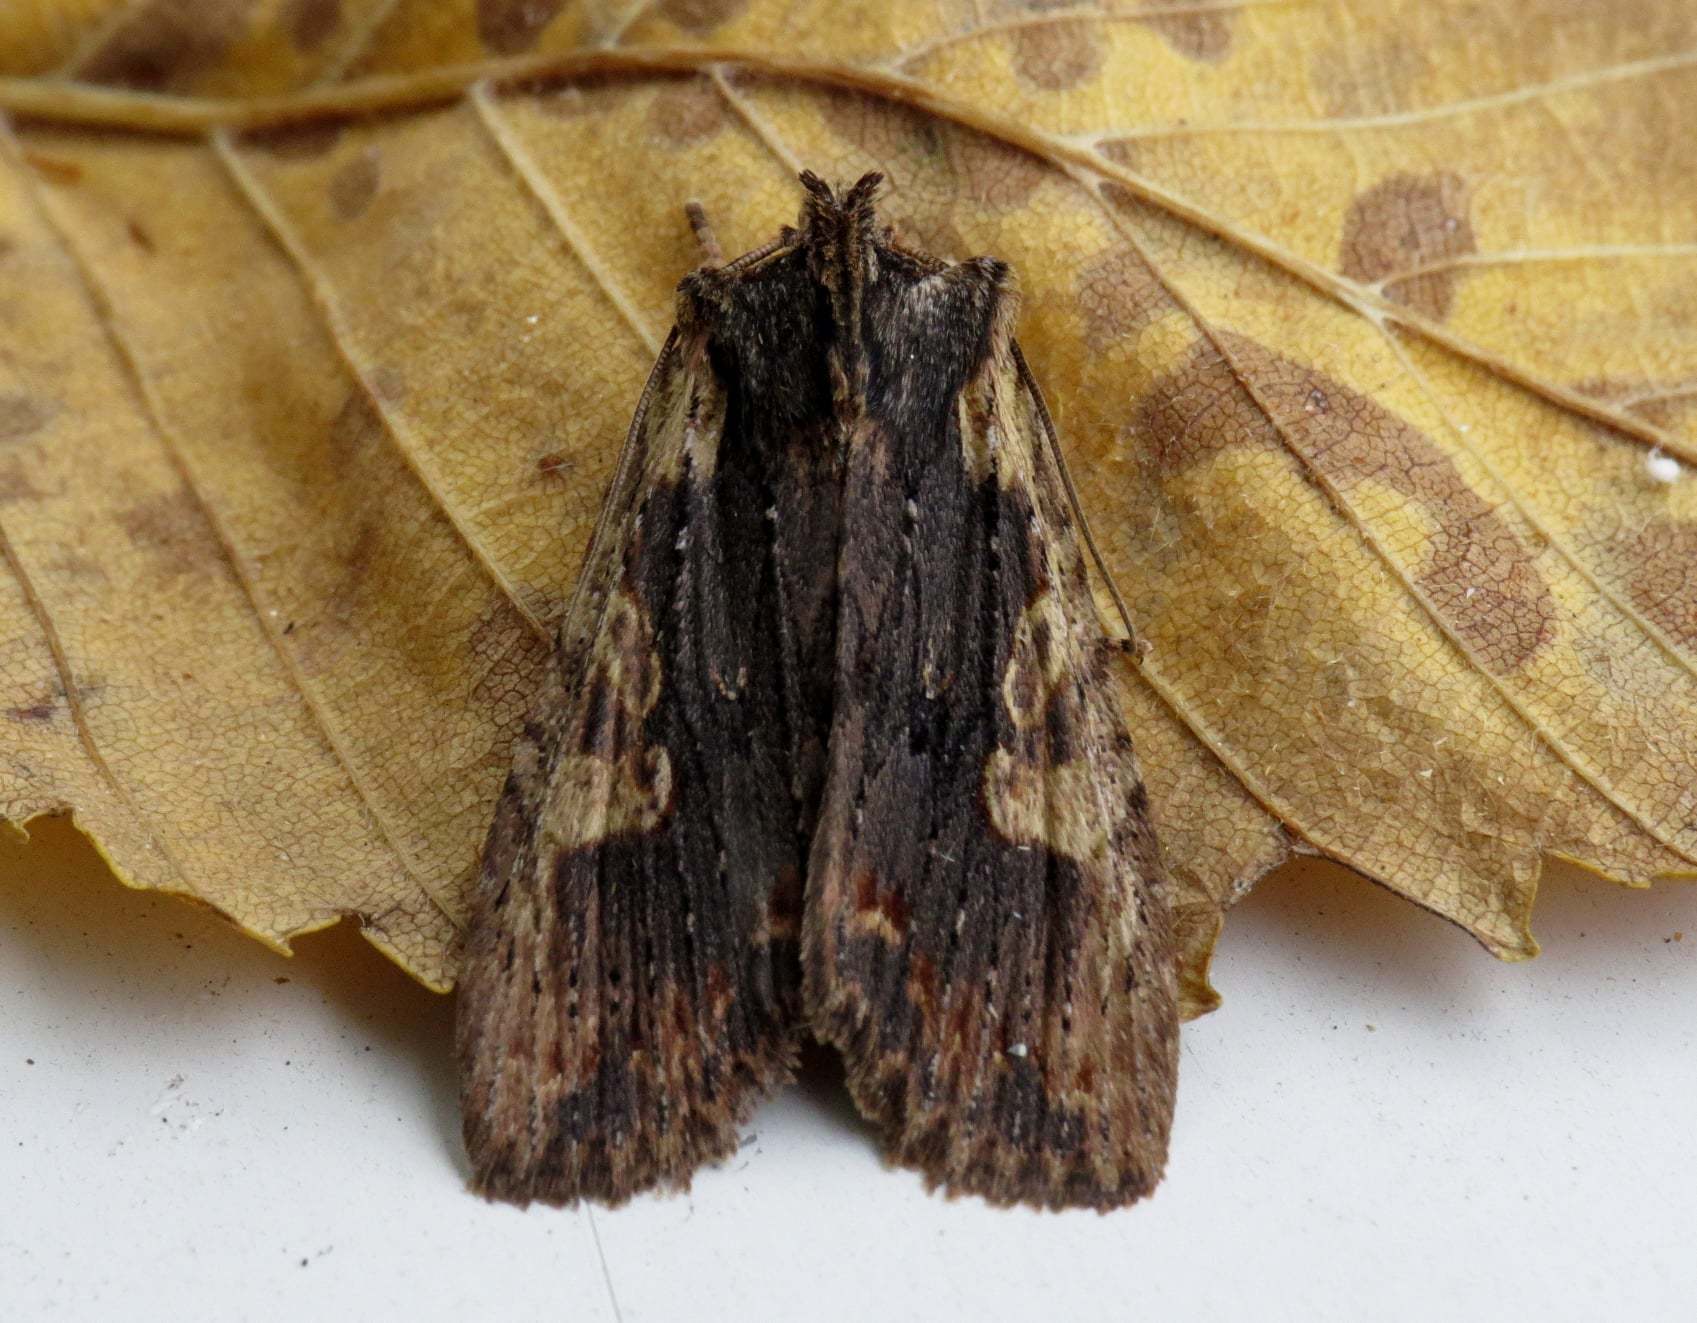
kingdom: Animalia
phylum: Arthropoda
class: Insecta
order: Lepidoptera
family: Noctuidae
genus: Lithophane
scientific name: Lithophane hemina
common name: Hemina pinion moth
